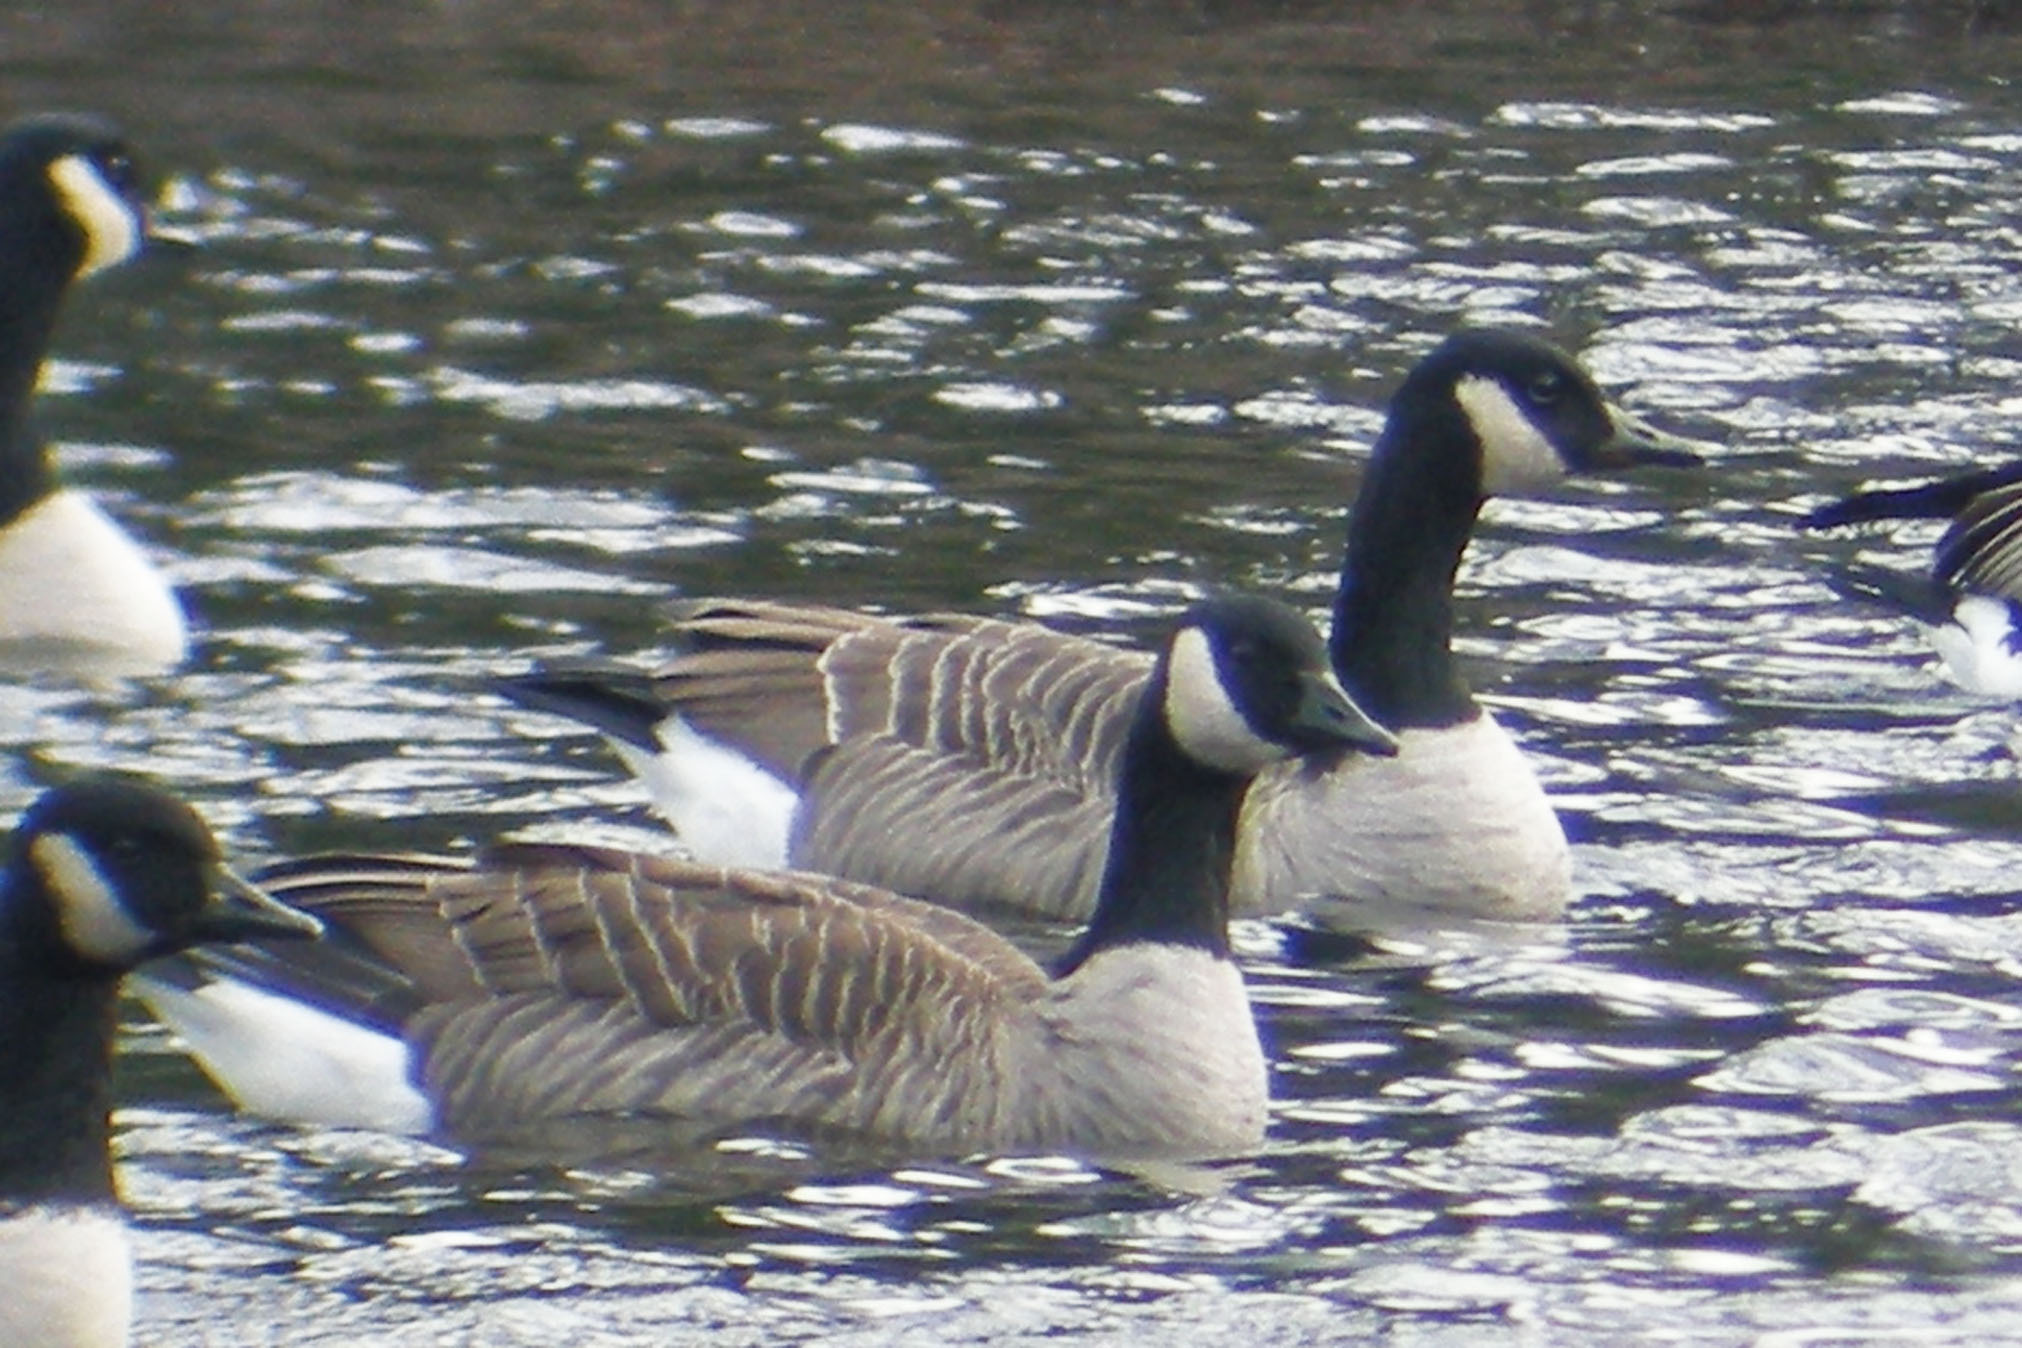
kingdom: Animalia
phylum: Chordata
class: Aves
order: Anseriformes
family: Anatidae
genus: Branta
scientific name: Branta canadensis
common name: Canada goose
